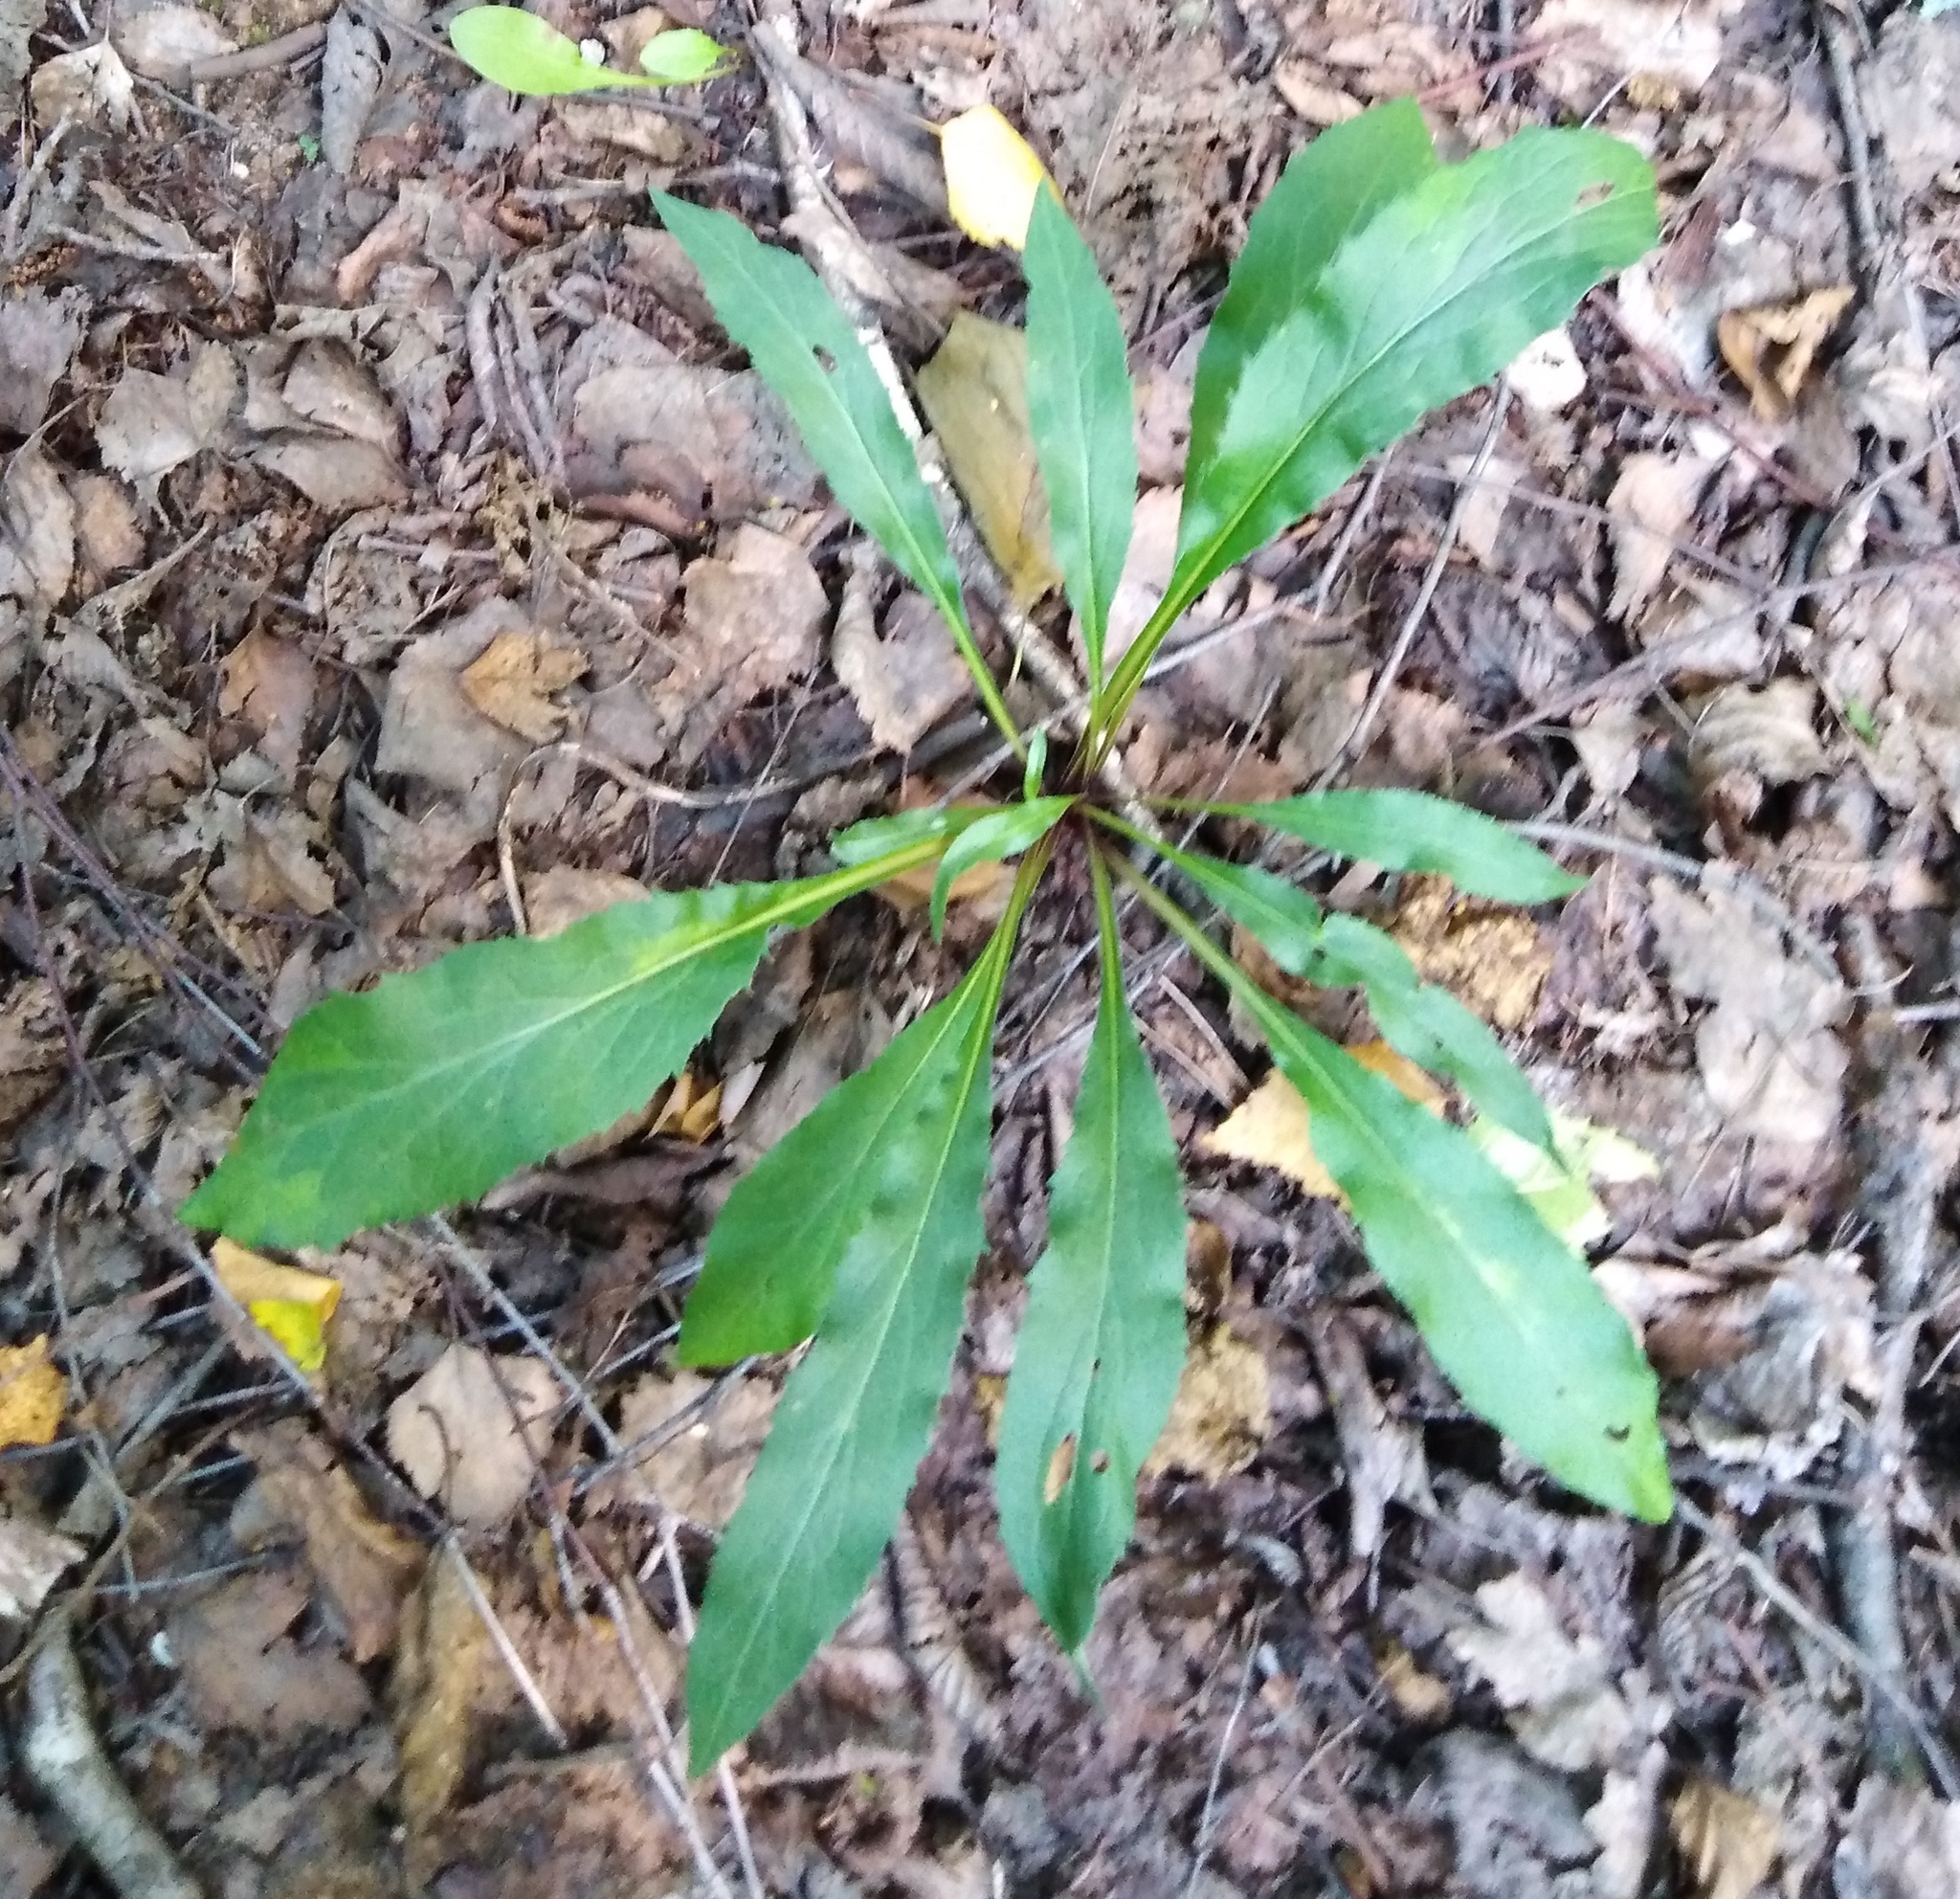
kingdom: Plantae
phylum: Tracheophyta
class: Magnoliopsida
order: Asterales
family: Asteraceae
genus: Solidago
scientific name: Solidago virgaurea
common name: Goldenrod
